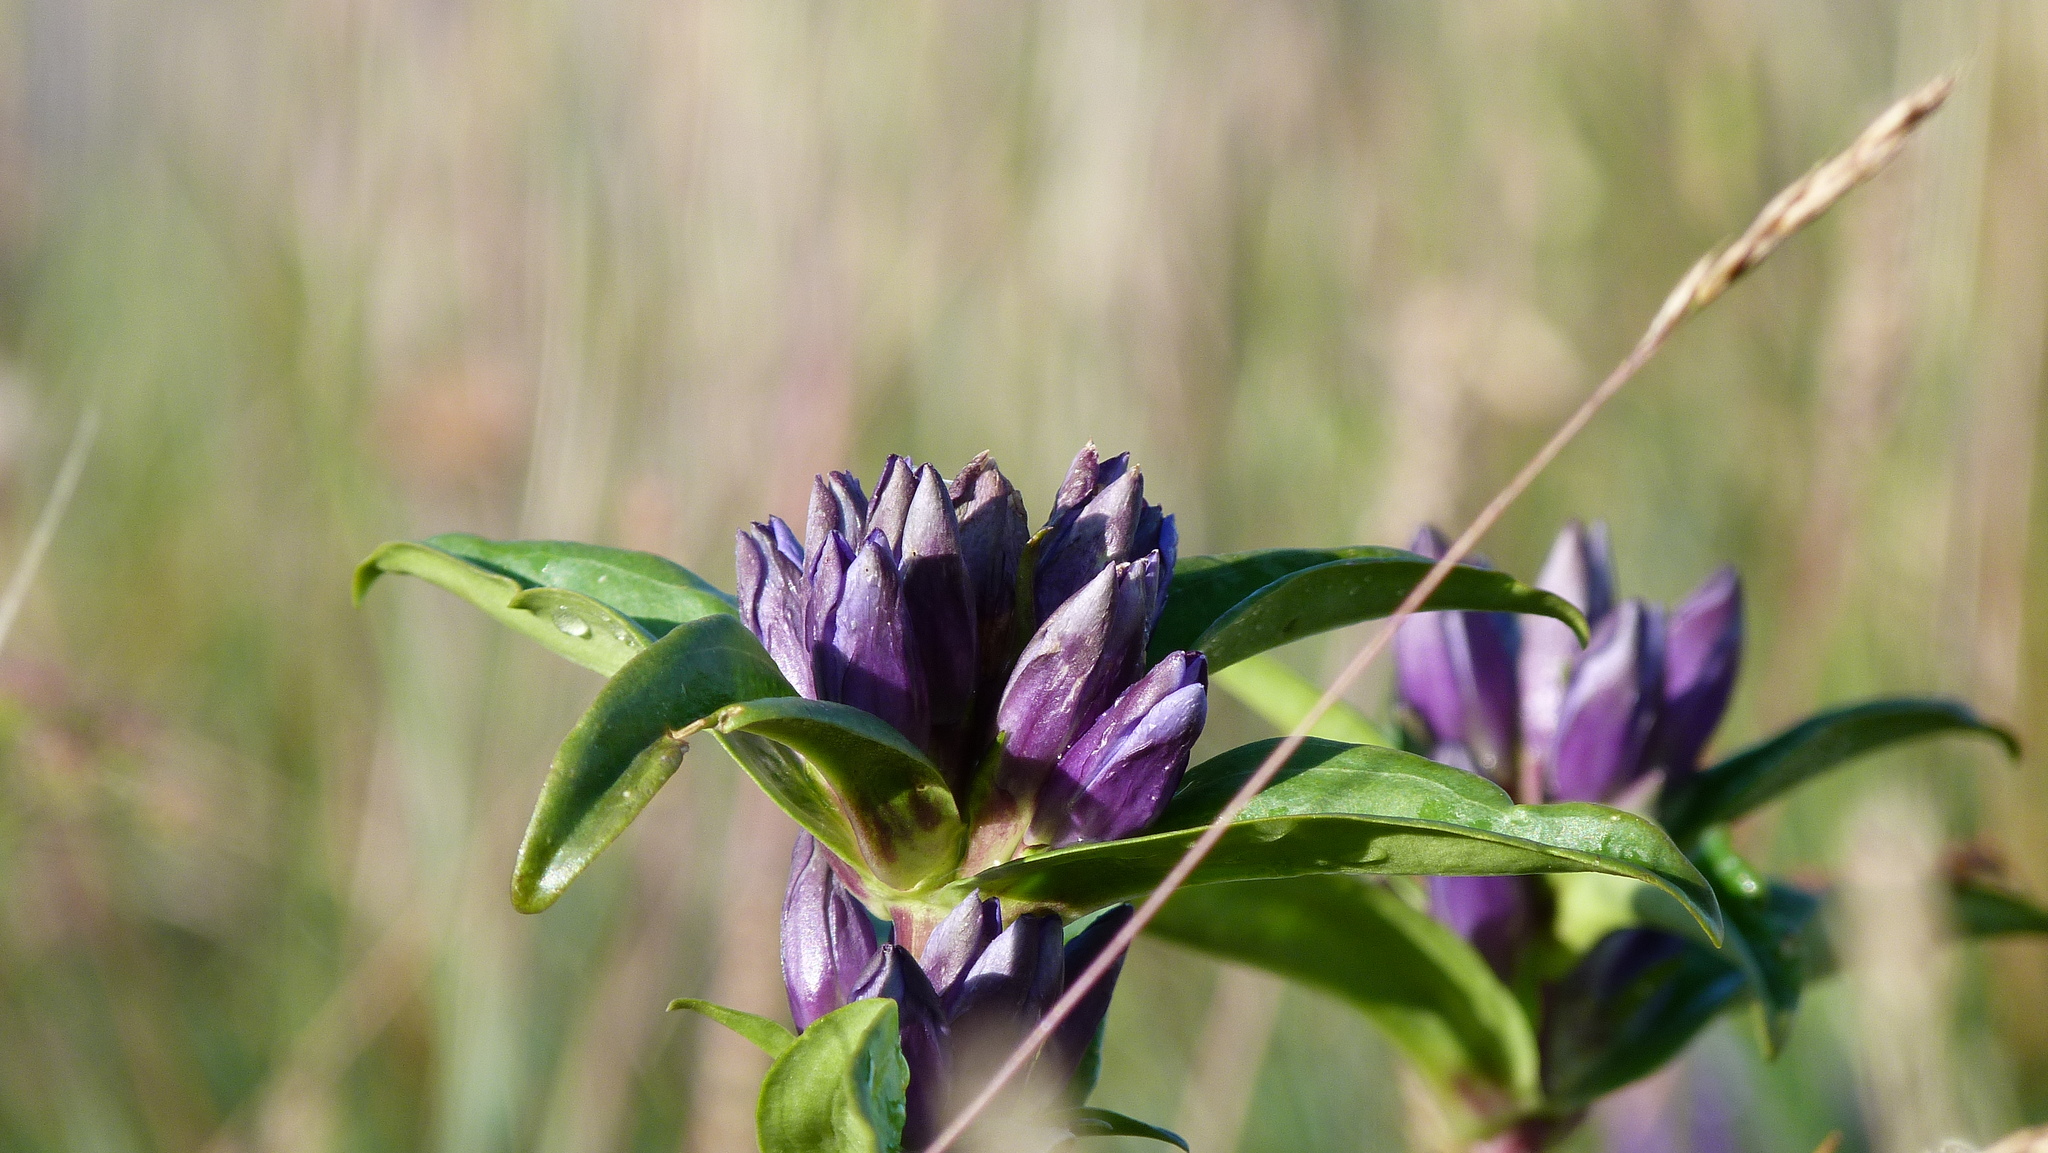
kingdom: Plantae
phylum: Tracheophyta
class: Magnoliopsida
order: Gentianales
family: Gentianaceae
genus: Gentiana
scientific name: Gentiana cruciata
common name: Cross gentian
